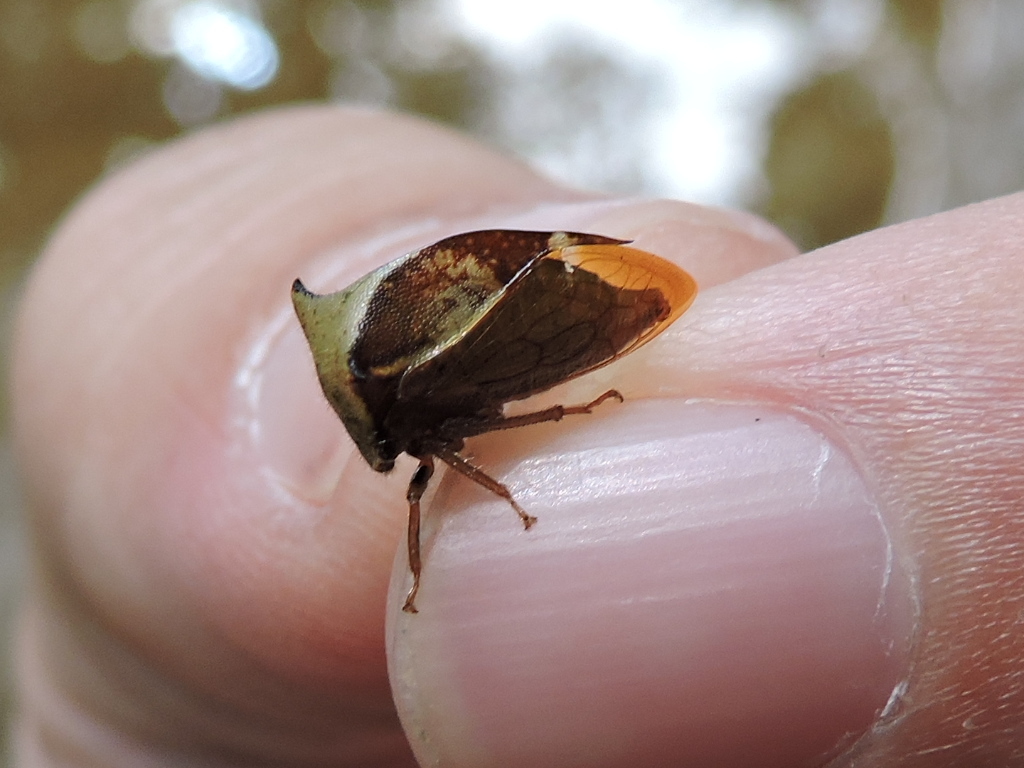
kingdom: Animalia
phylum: Arthropoda
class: Insecta
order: Hemiptera
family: Membracidae
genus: Stictocephala
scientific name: Stictocephala diceros
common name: Two-horned treehopper
